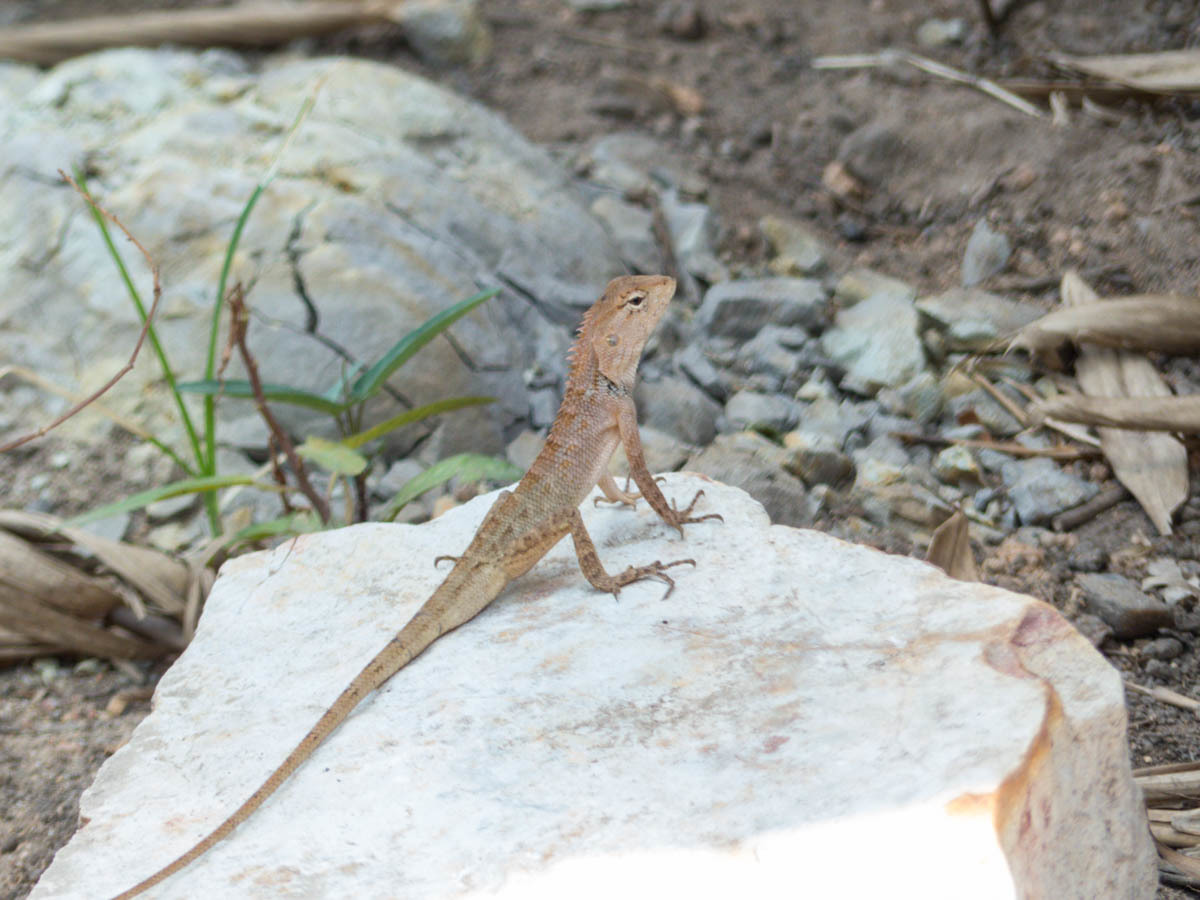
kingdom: Animalia
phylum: Chordata
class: Squamata
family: Agamidae
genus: Calotes
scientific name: Calotes versicolor
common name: Oriental garden lizard
